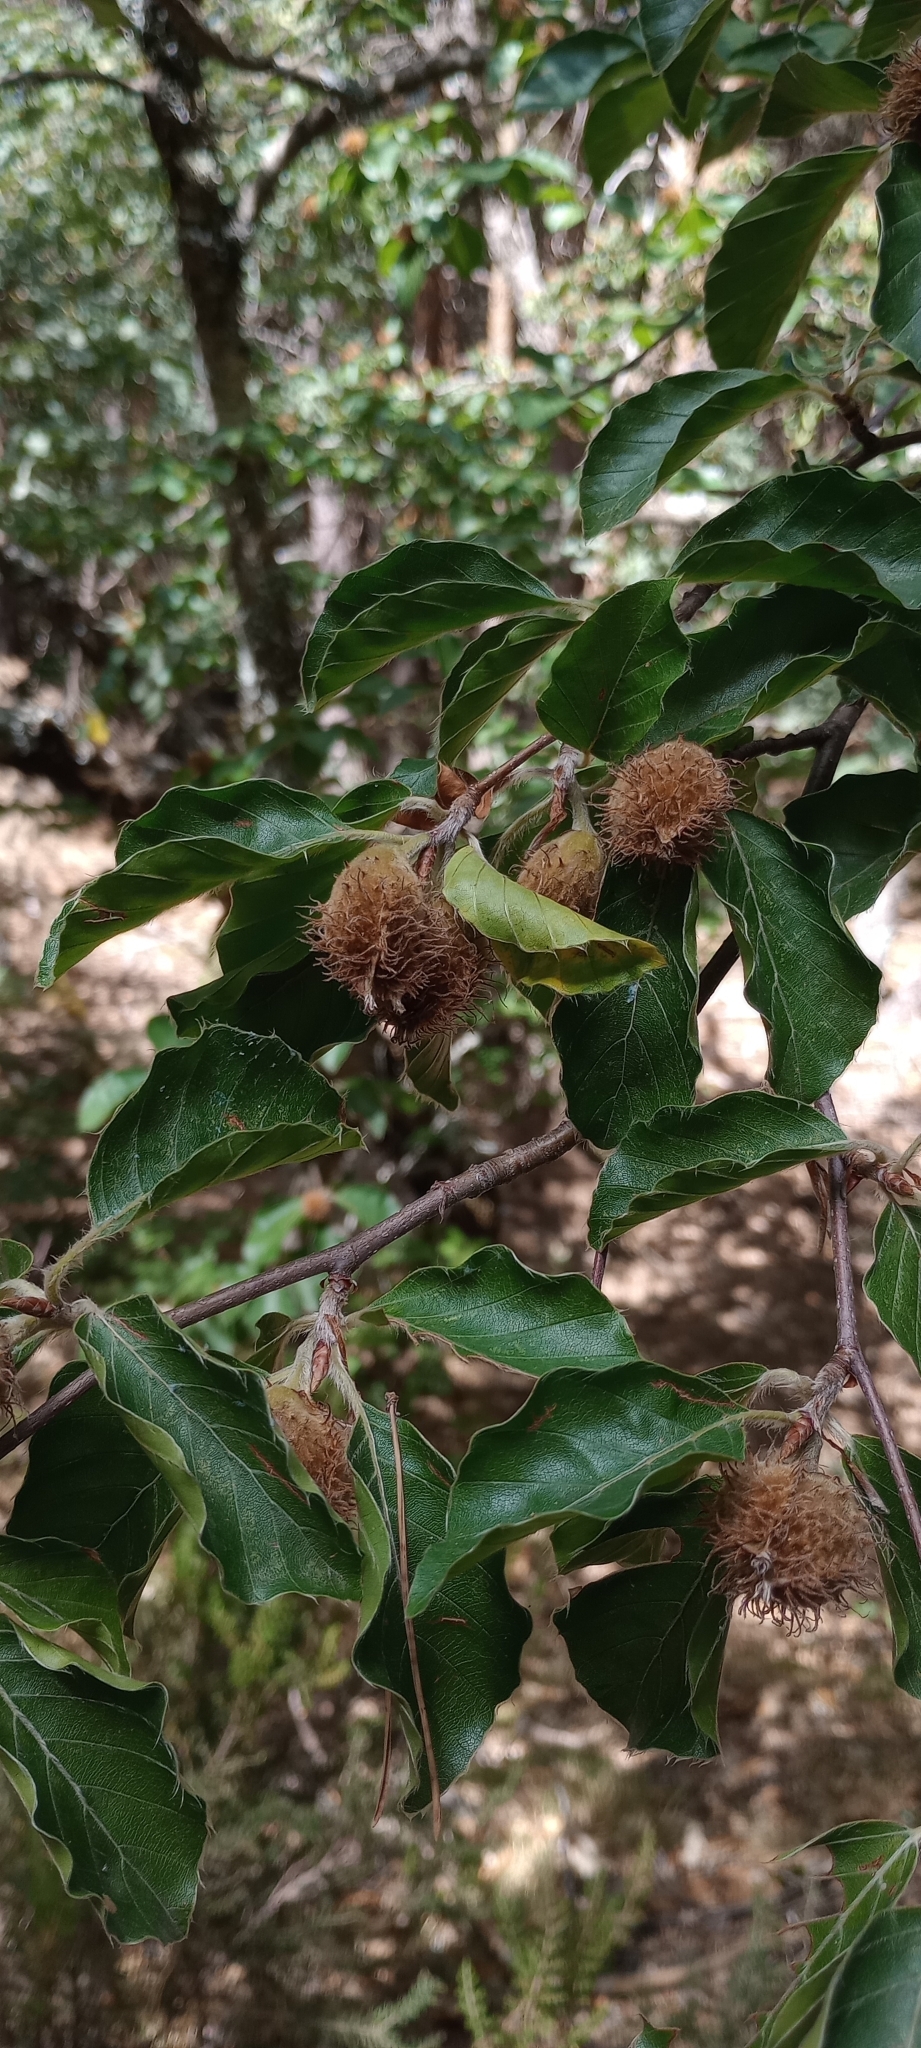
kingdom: Plantae
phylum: Tracheophyta
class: Magnoliopsida
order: Fagales
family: Fagaceae
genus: Fagus
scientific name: Fagus sylvatica
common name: Beech
